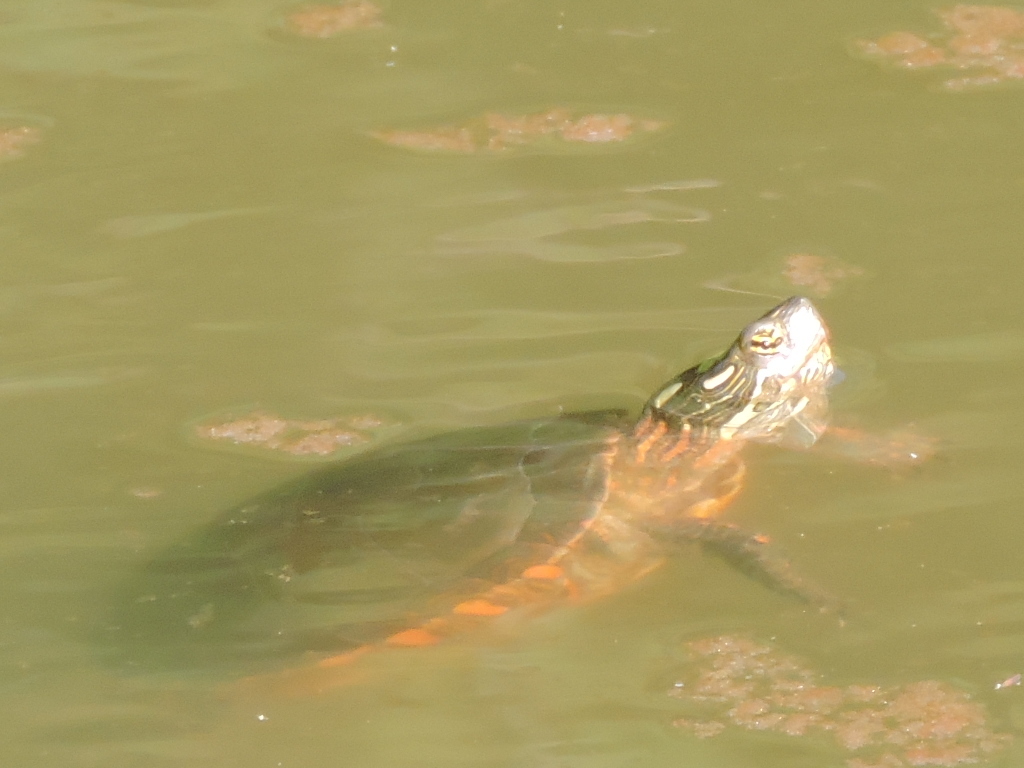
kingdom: Animalia
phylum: Chordata
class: Testudines
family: Emydidae
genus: Chrysemys
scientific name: Chrysemys picta
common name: Painted turtle
